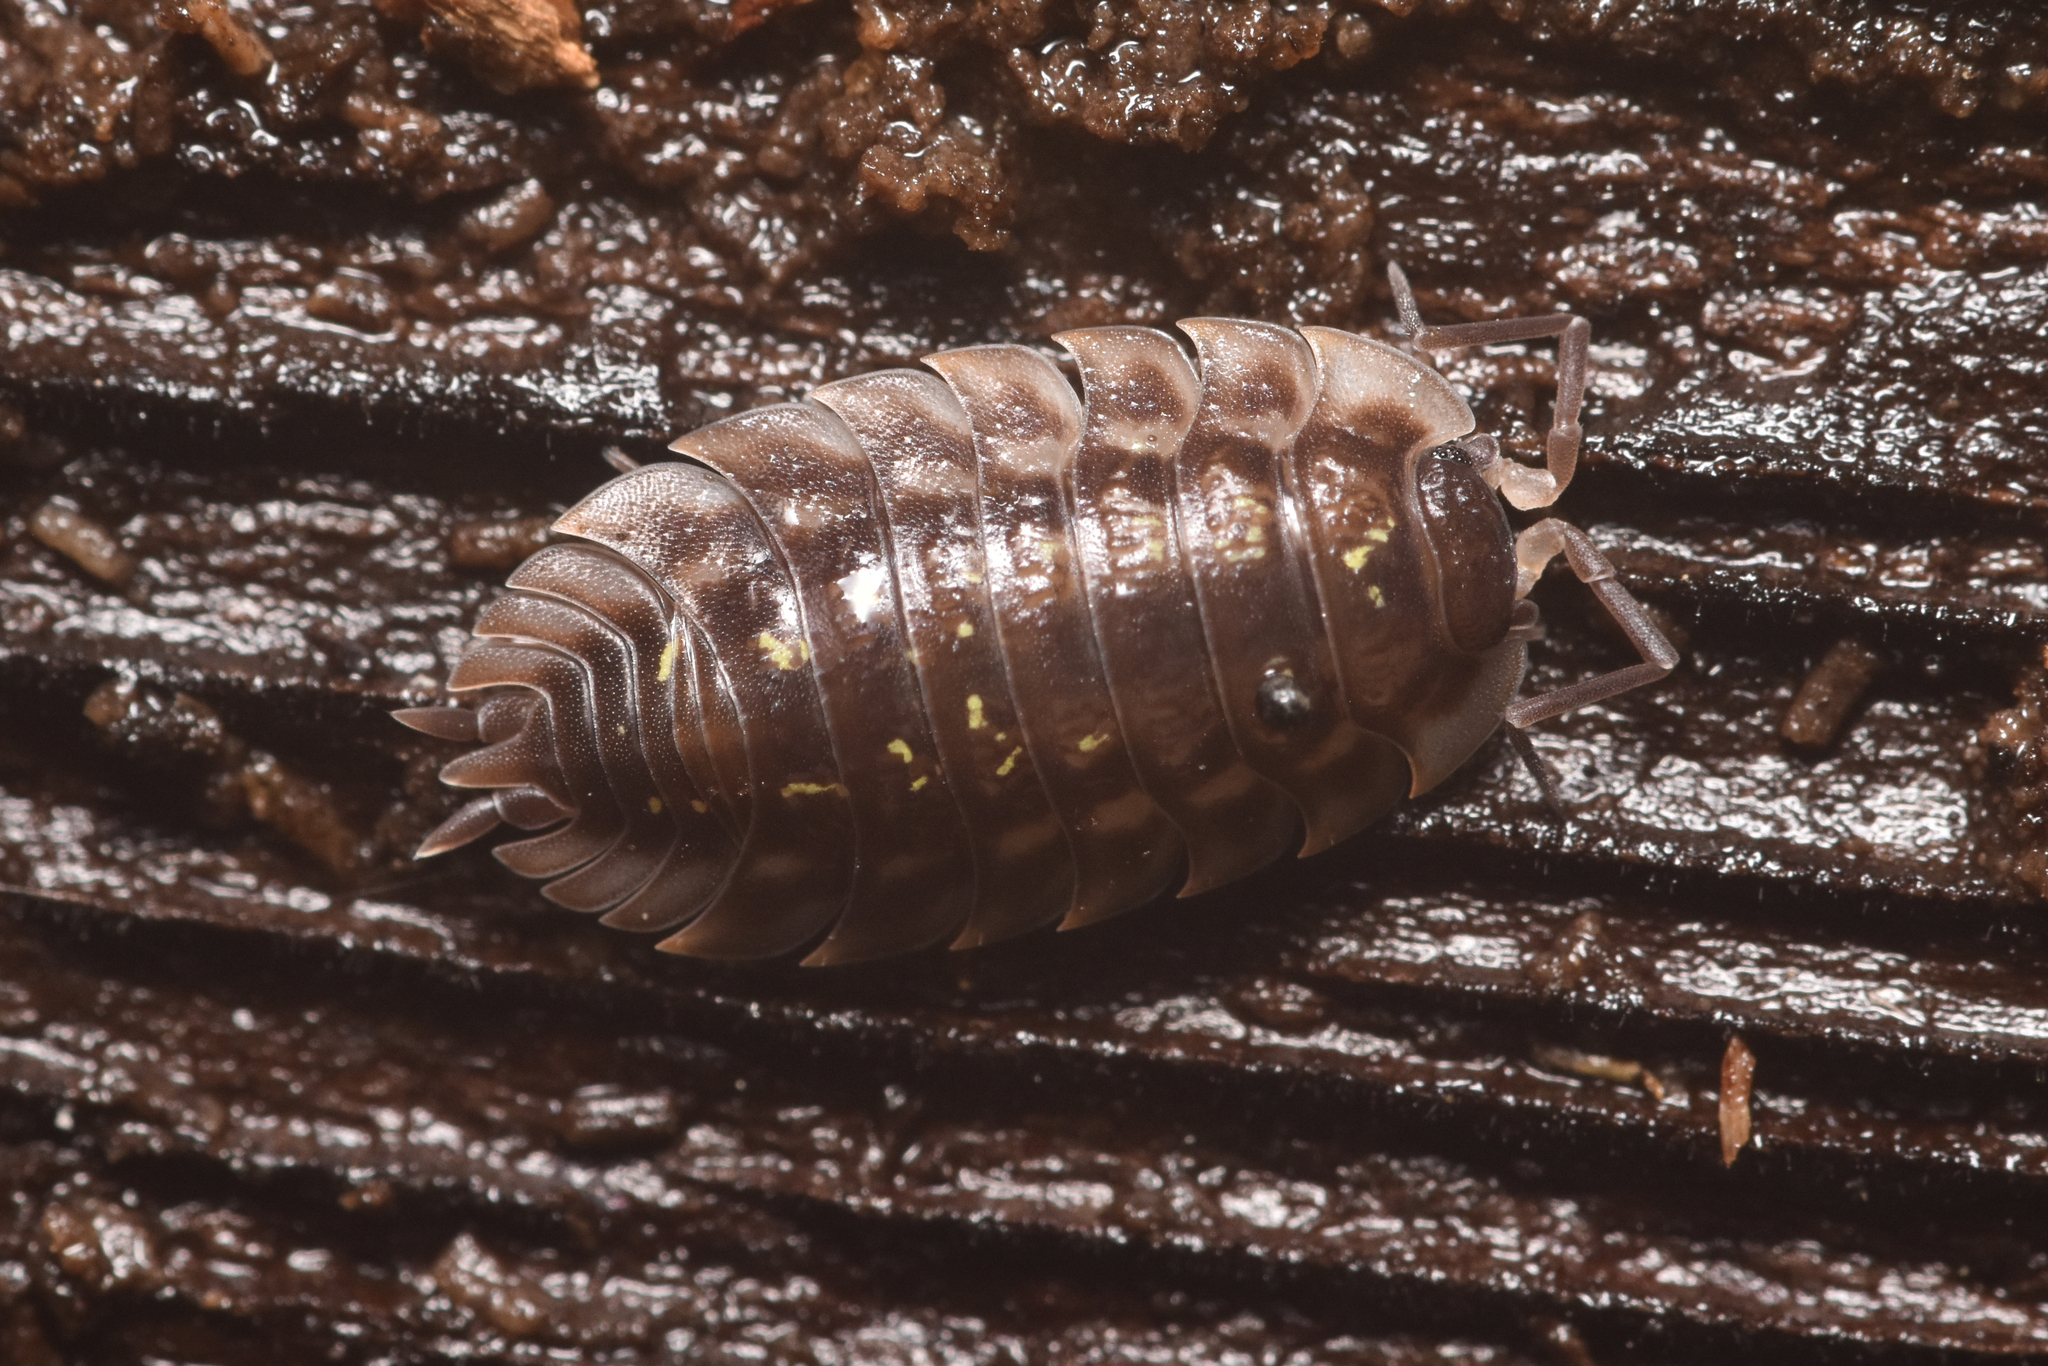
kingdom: Animalia
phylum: Arthropoda
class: Malacostraca
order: Isopoda
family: Oniscidae
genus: Oniscus
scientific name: Oniscus asellus
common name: Common shiny woodlouse
